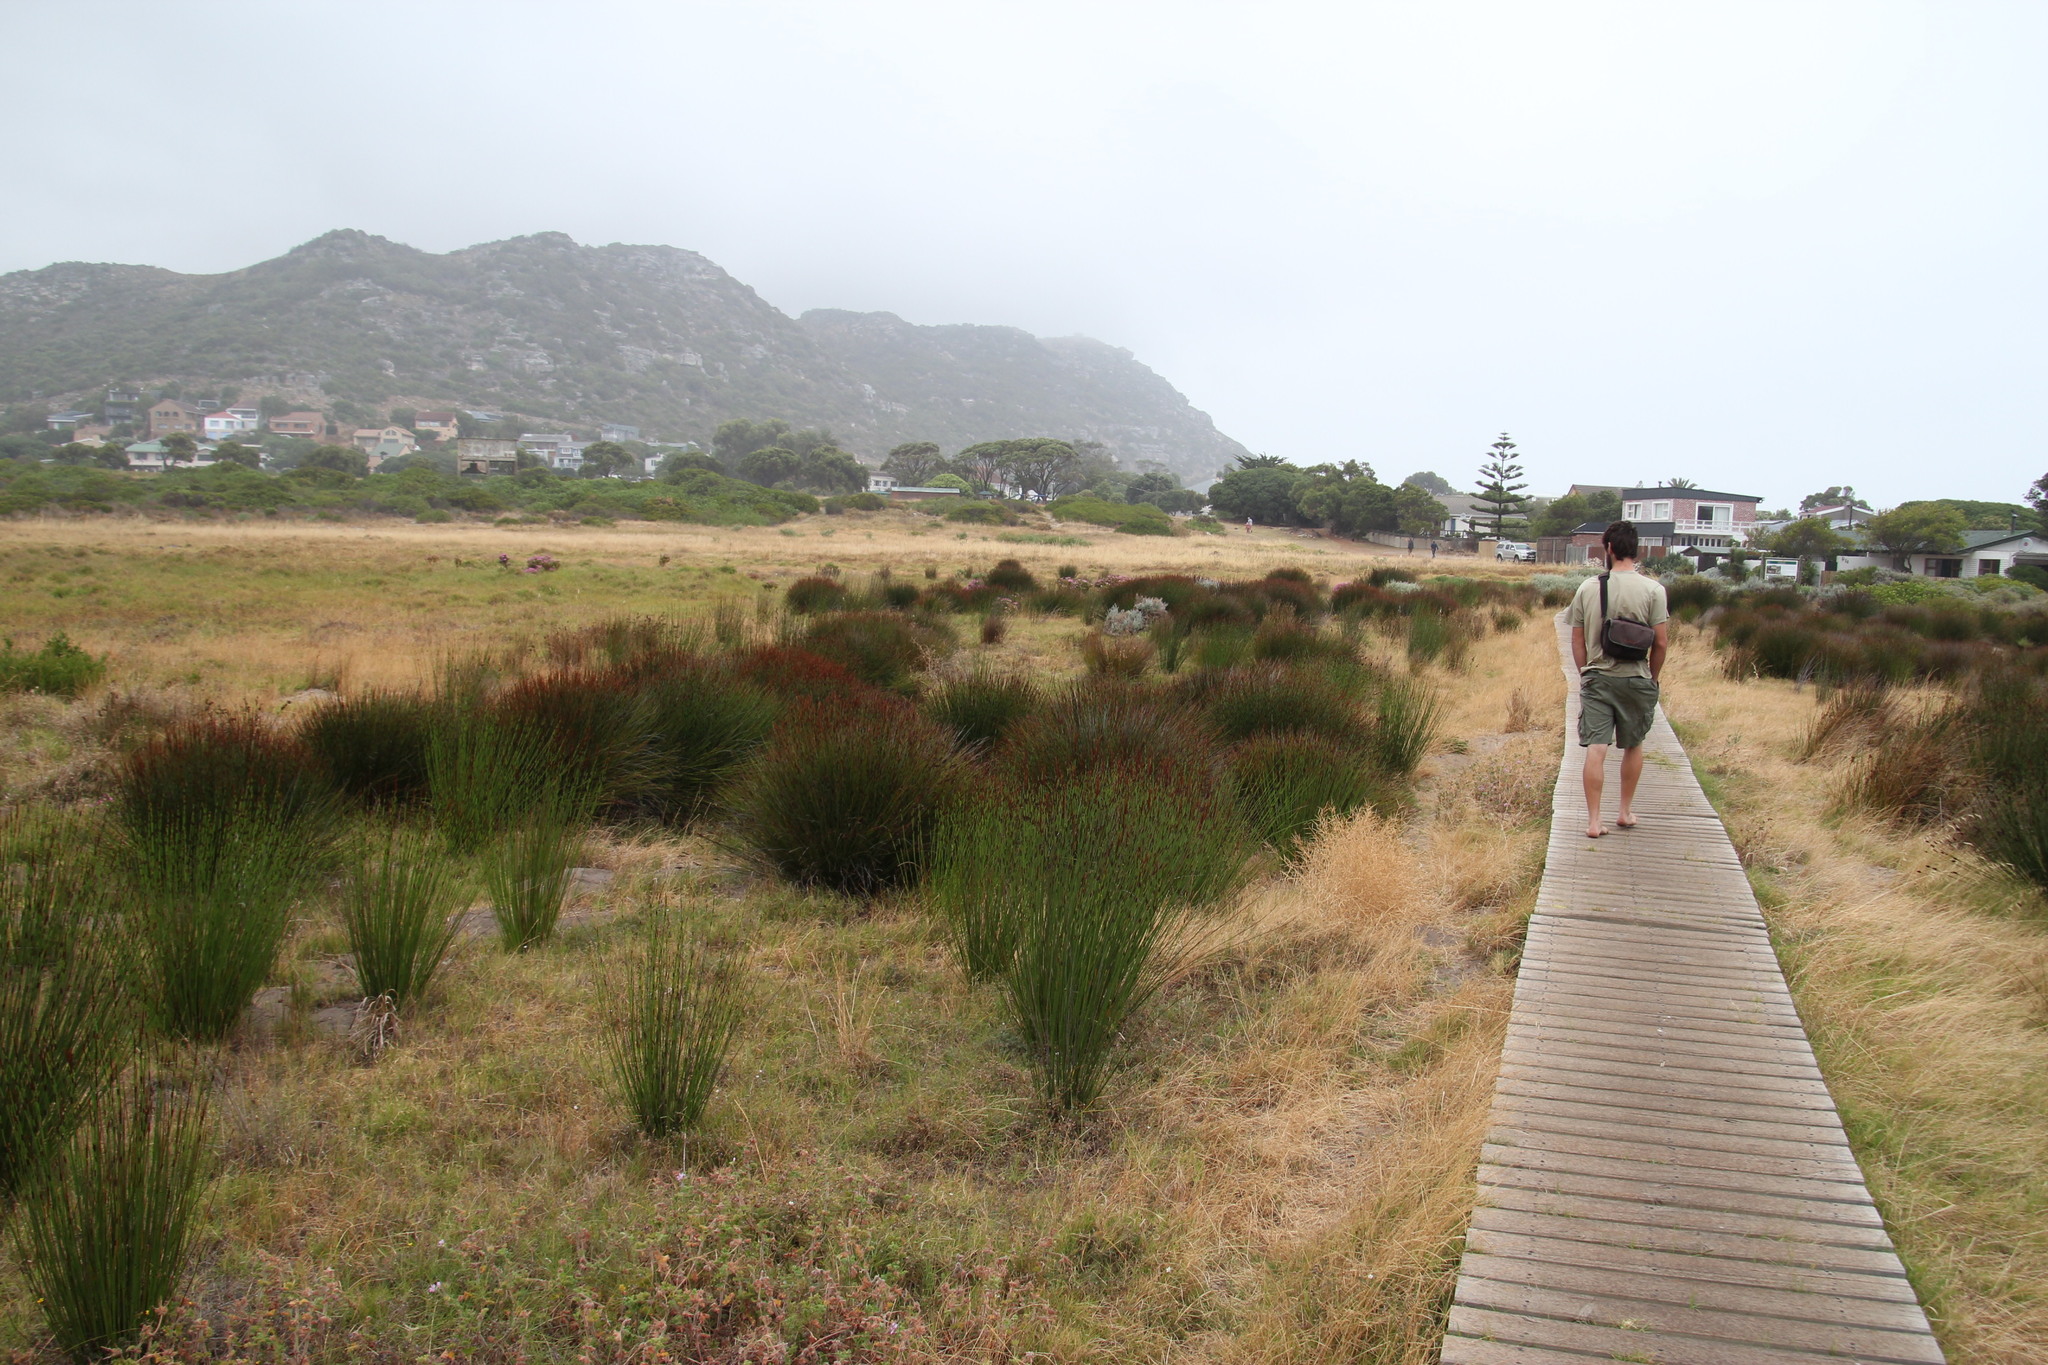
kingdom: Plantae
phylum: Tracheophyta
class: Liliopsida
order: Poales
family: Restionaceae
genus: Elegia
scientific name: Elegia tectorum
